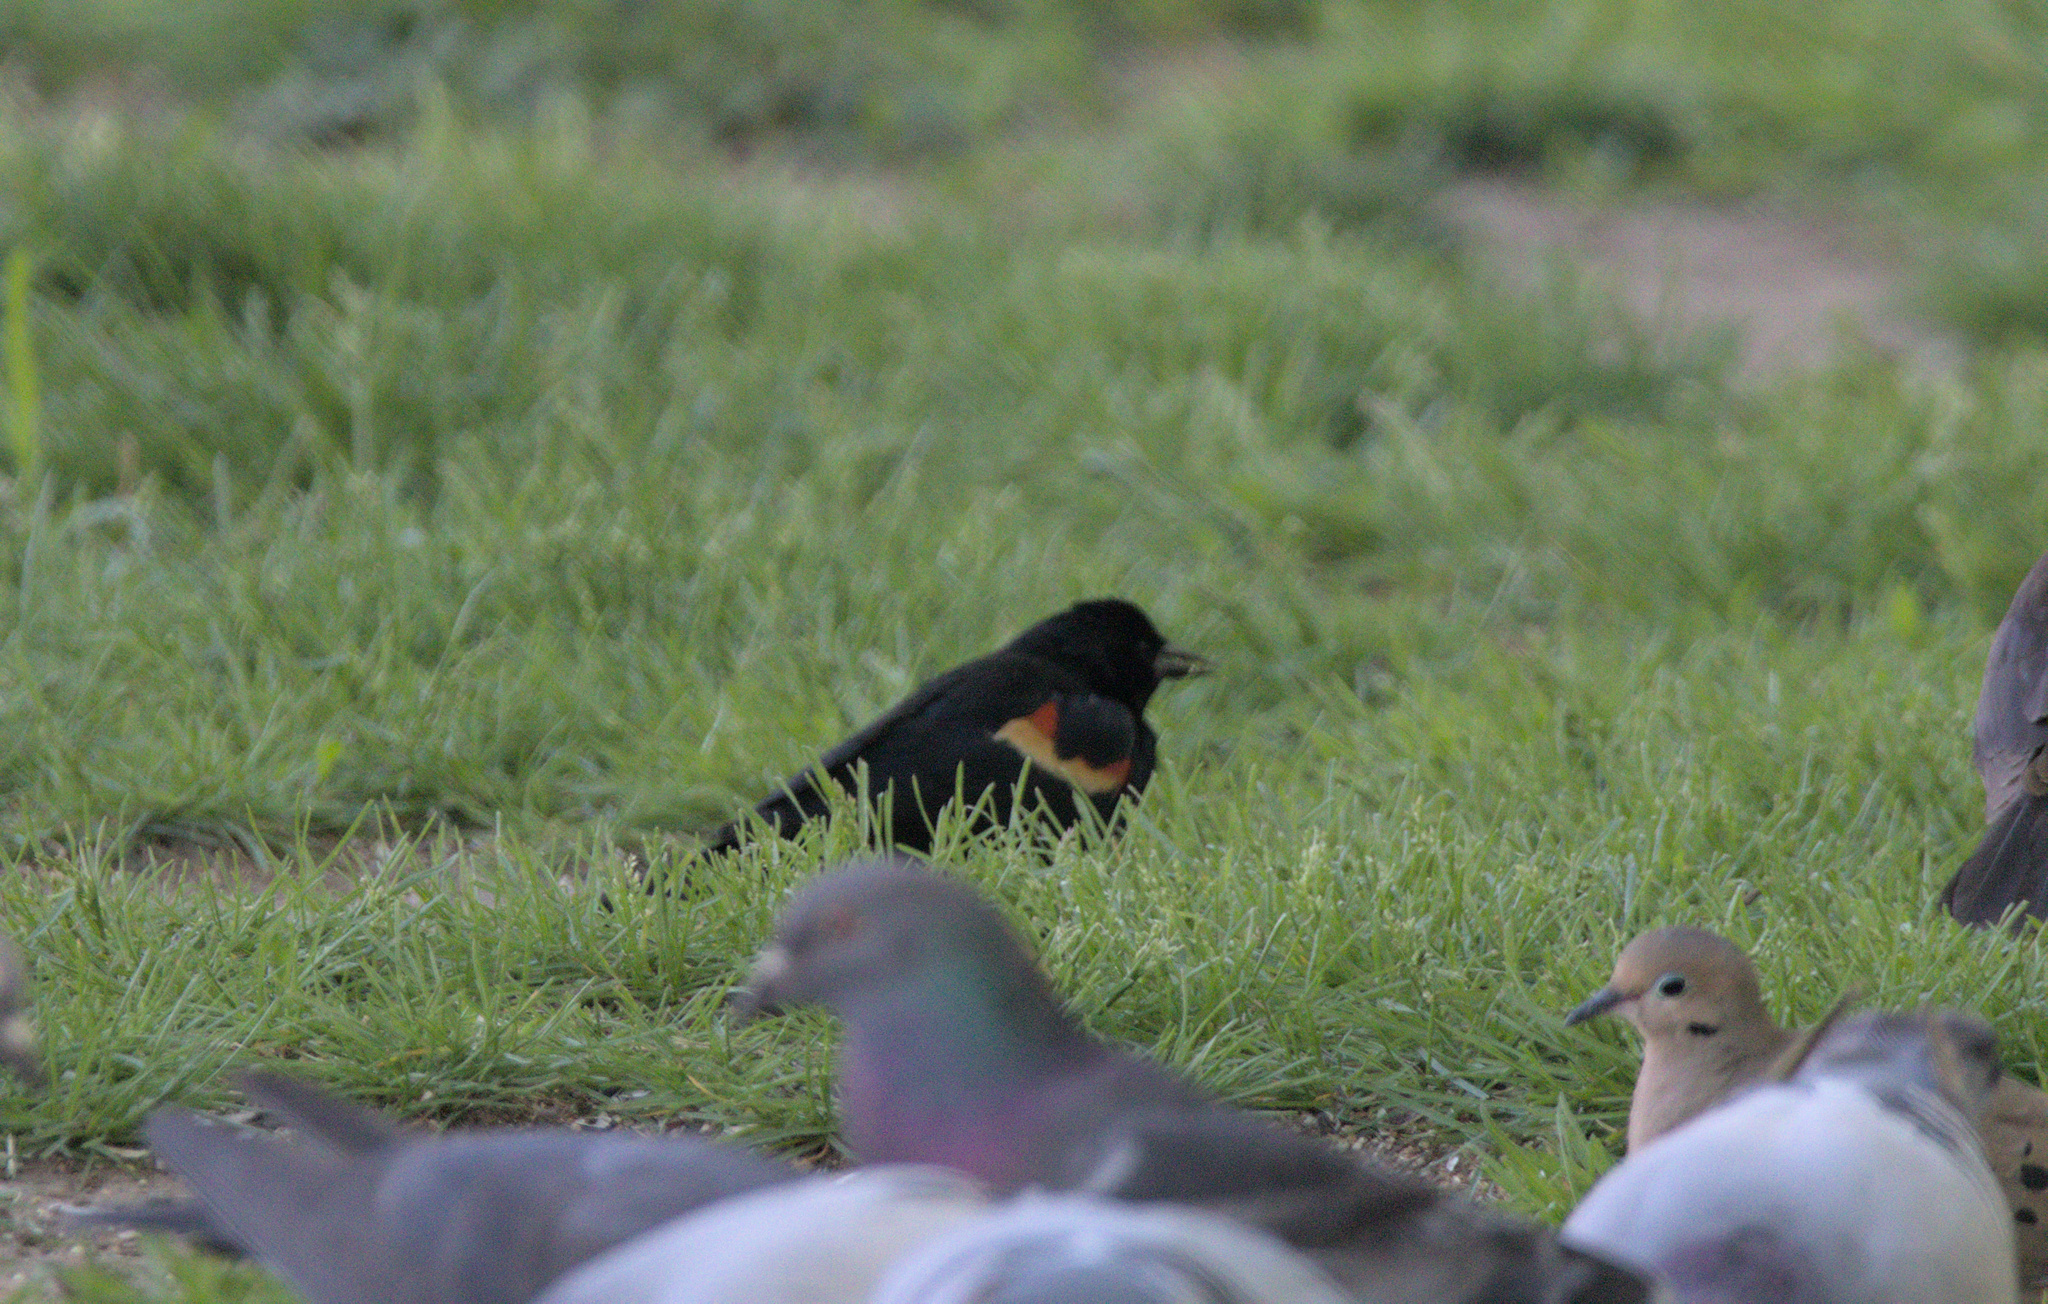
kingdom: Animalia
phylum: Chordata
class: Aves
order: Passeriformes
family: Icteridae
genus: Agelaius
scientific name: Agelaius phoeniceus
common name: Red-winged blackbird
